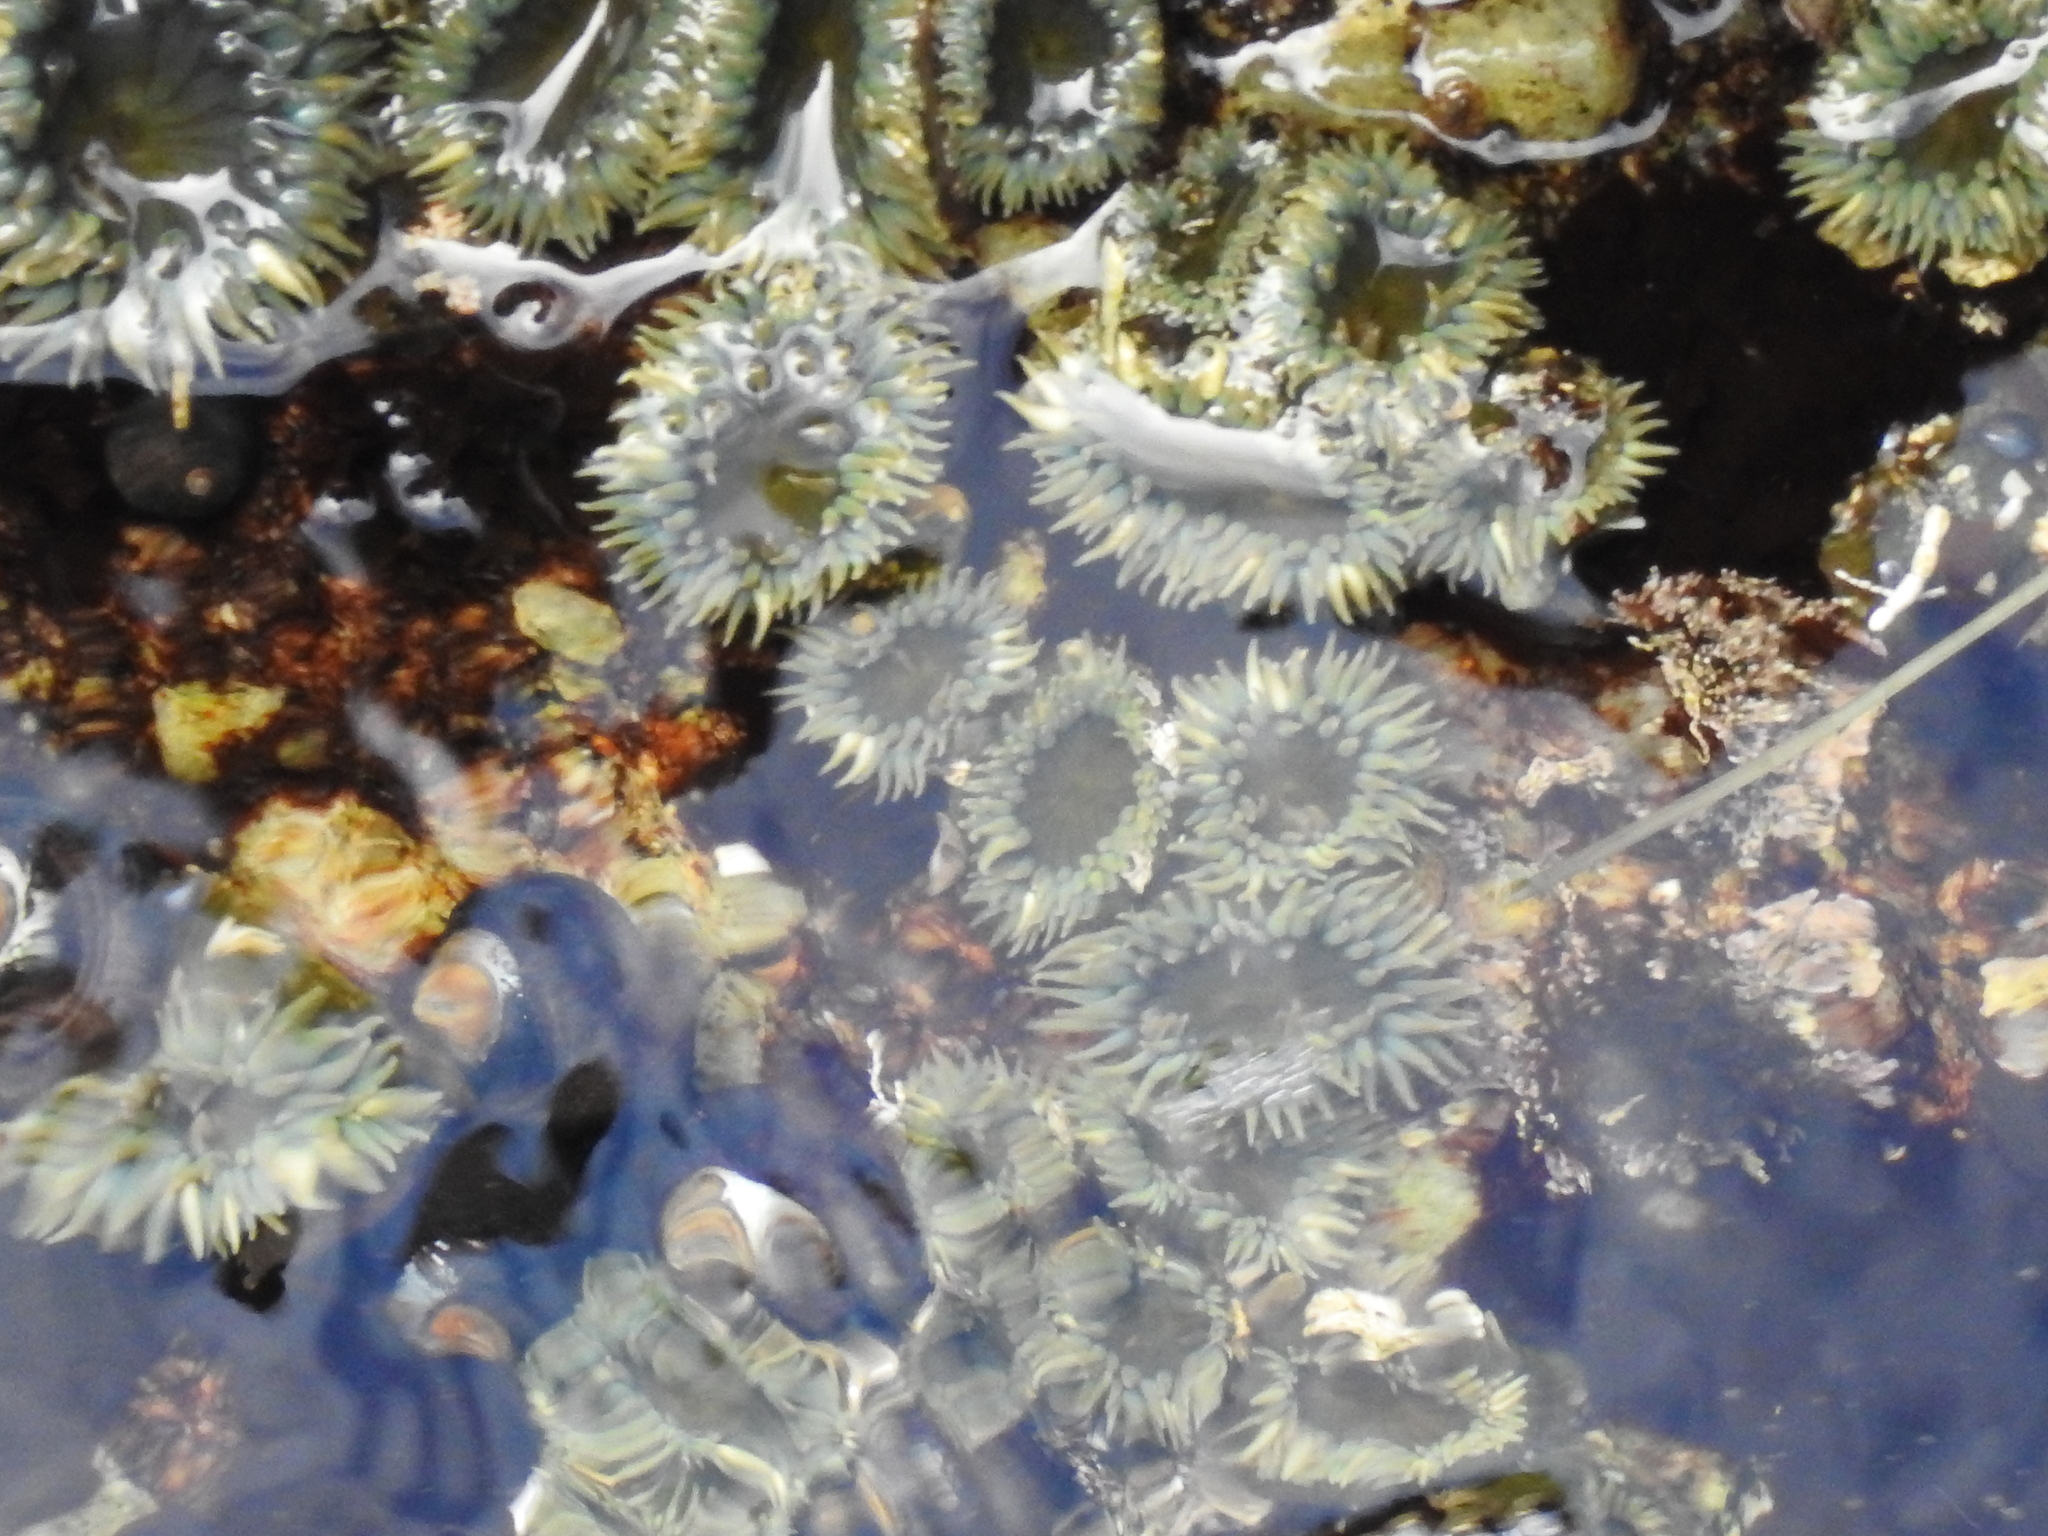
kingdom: Animalia
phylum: Cnidaria
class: Anthozoa
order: Actiniaria
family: Actiniidae
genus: Anthopleura
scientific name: Anthopleura elegantissima
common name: Clonal anemone
